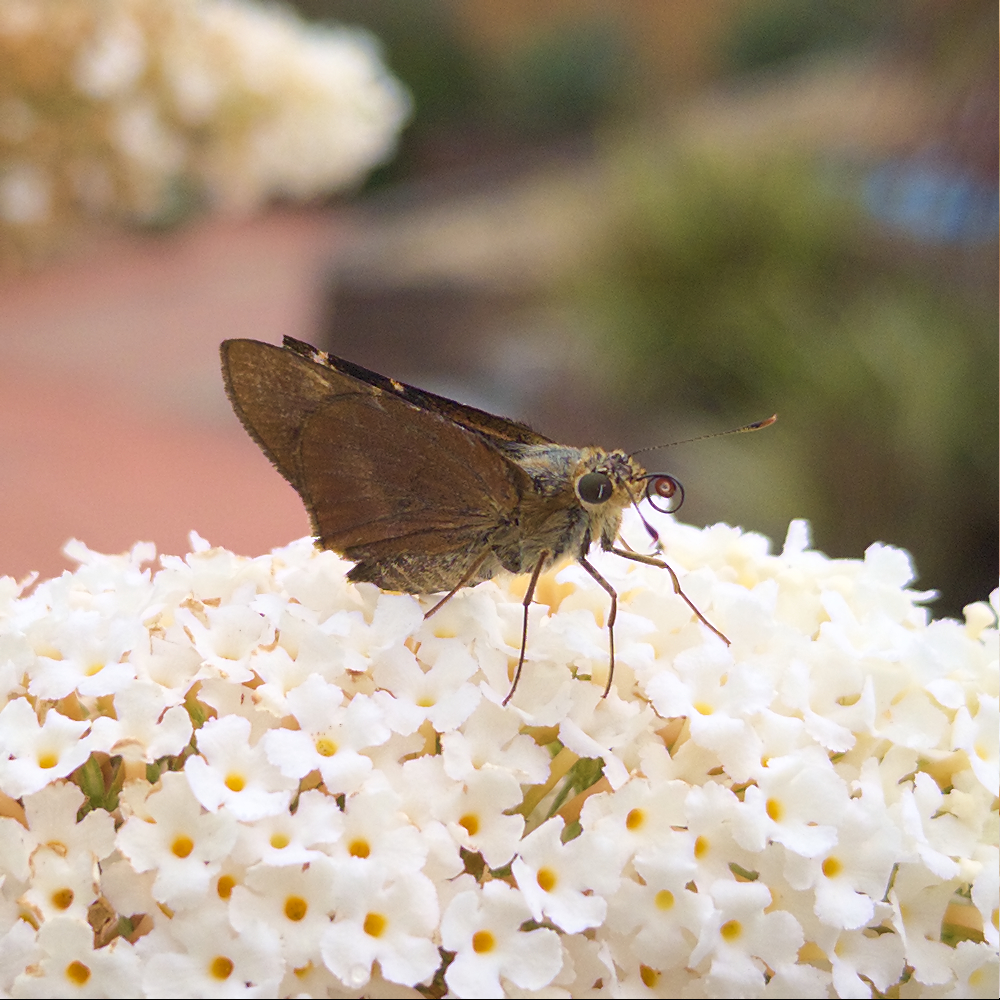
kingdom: Animalia
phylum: Arthropoda
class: Insecta
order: Lepidoptera
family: Hesperiidae
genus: Cephrenes
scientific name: Cephrenes augiades
